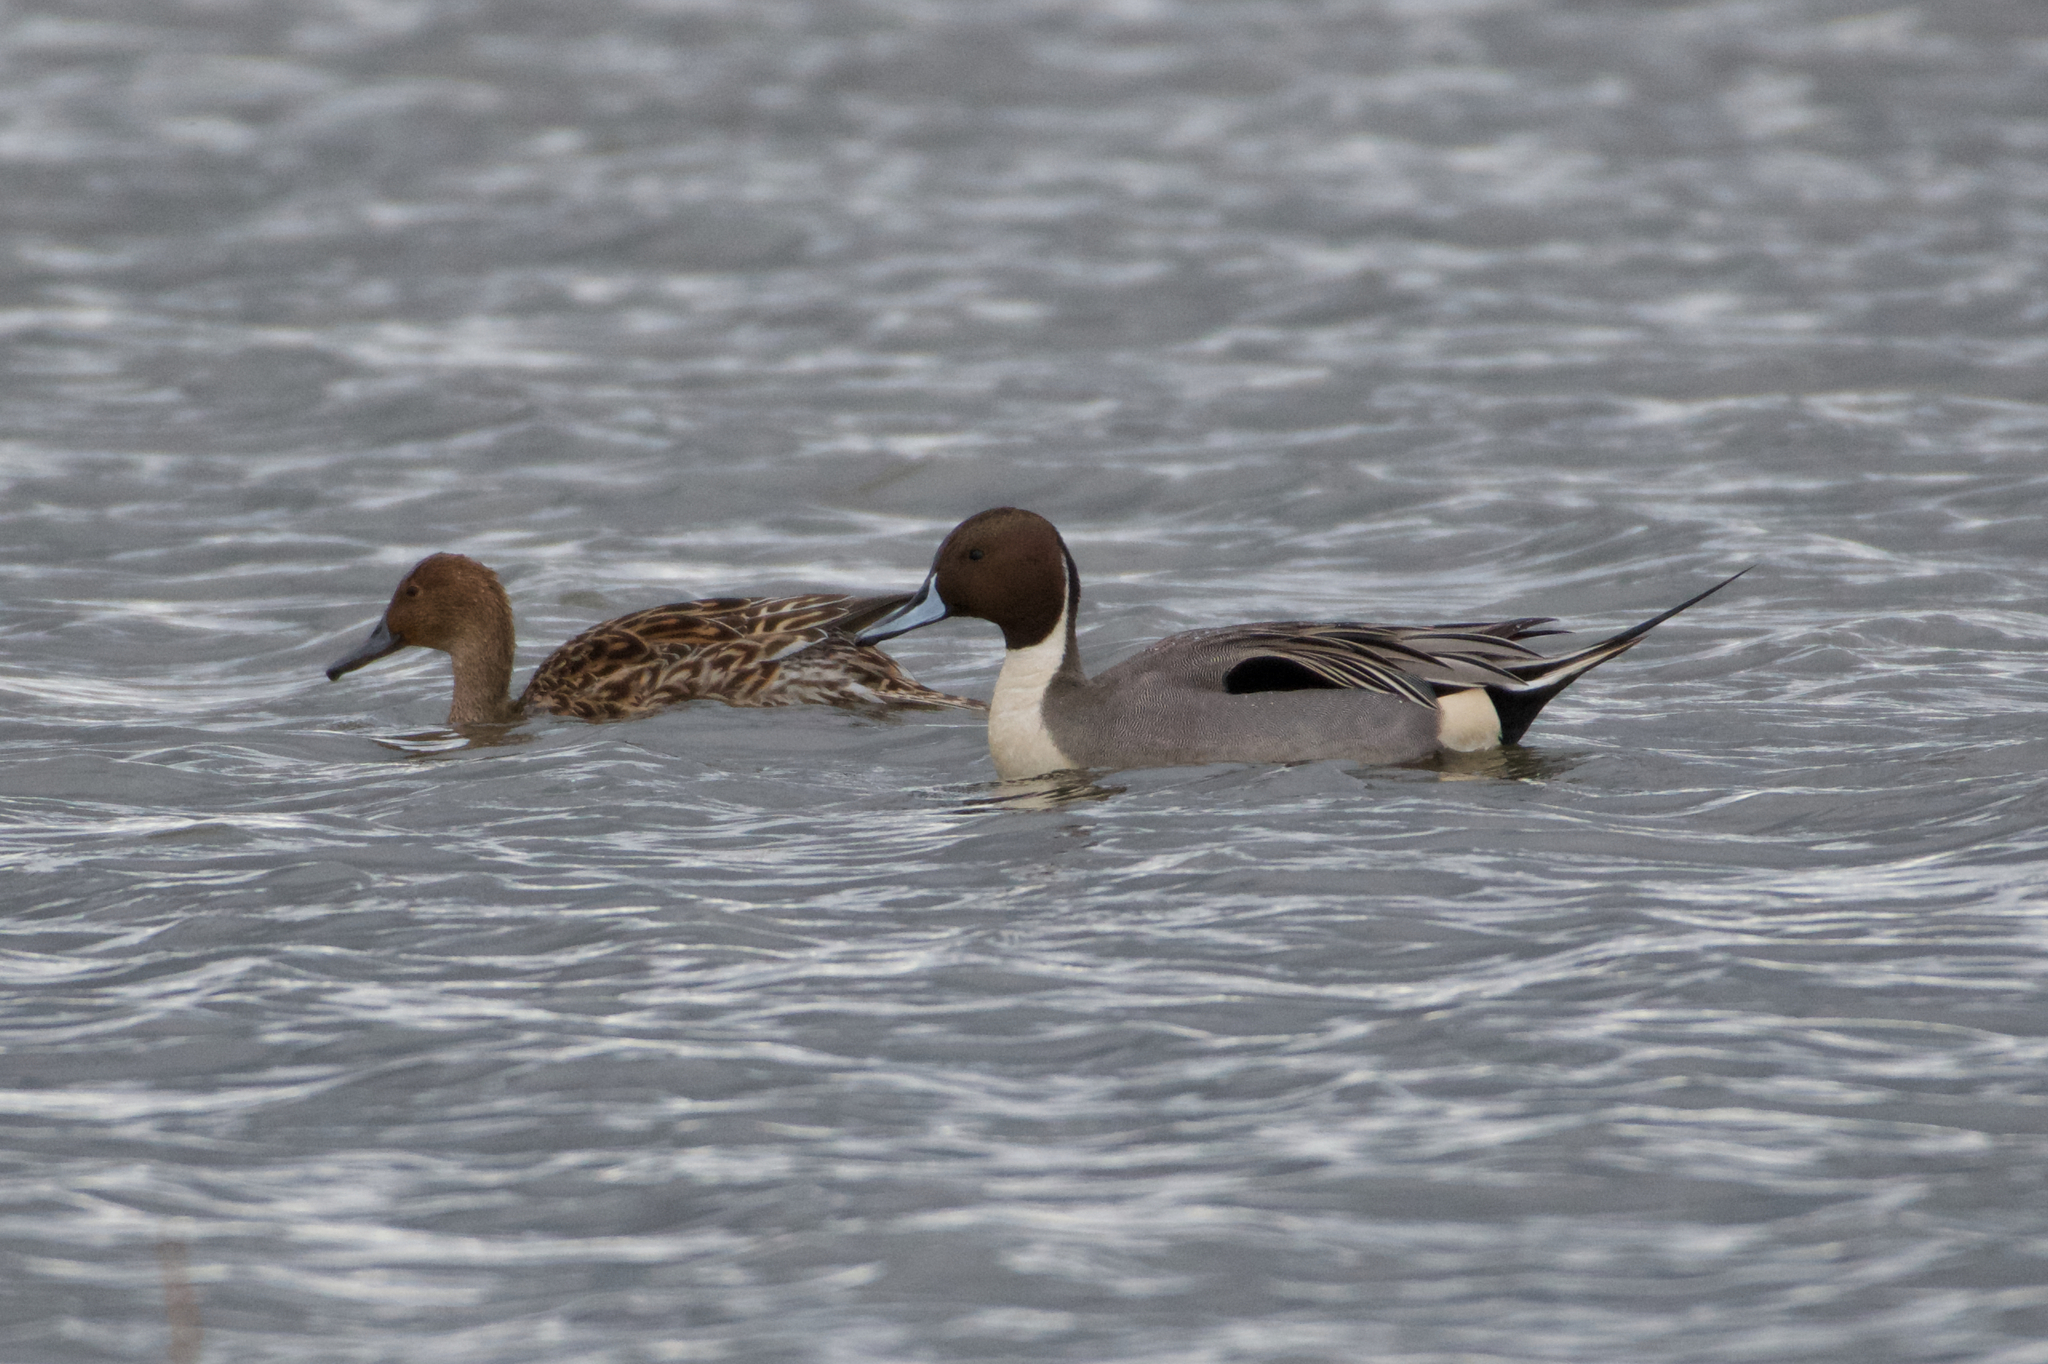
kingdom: Animalia
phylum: Chordata
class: Aves
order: Anseriformes
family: Anatidae
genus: Anas
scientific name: Anas acuta
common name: Northern pintail
